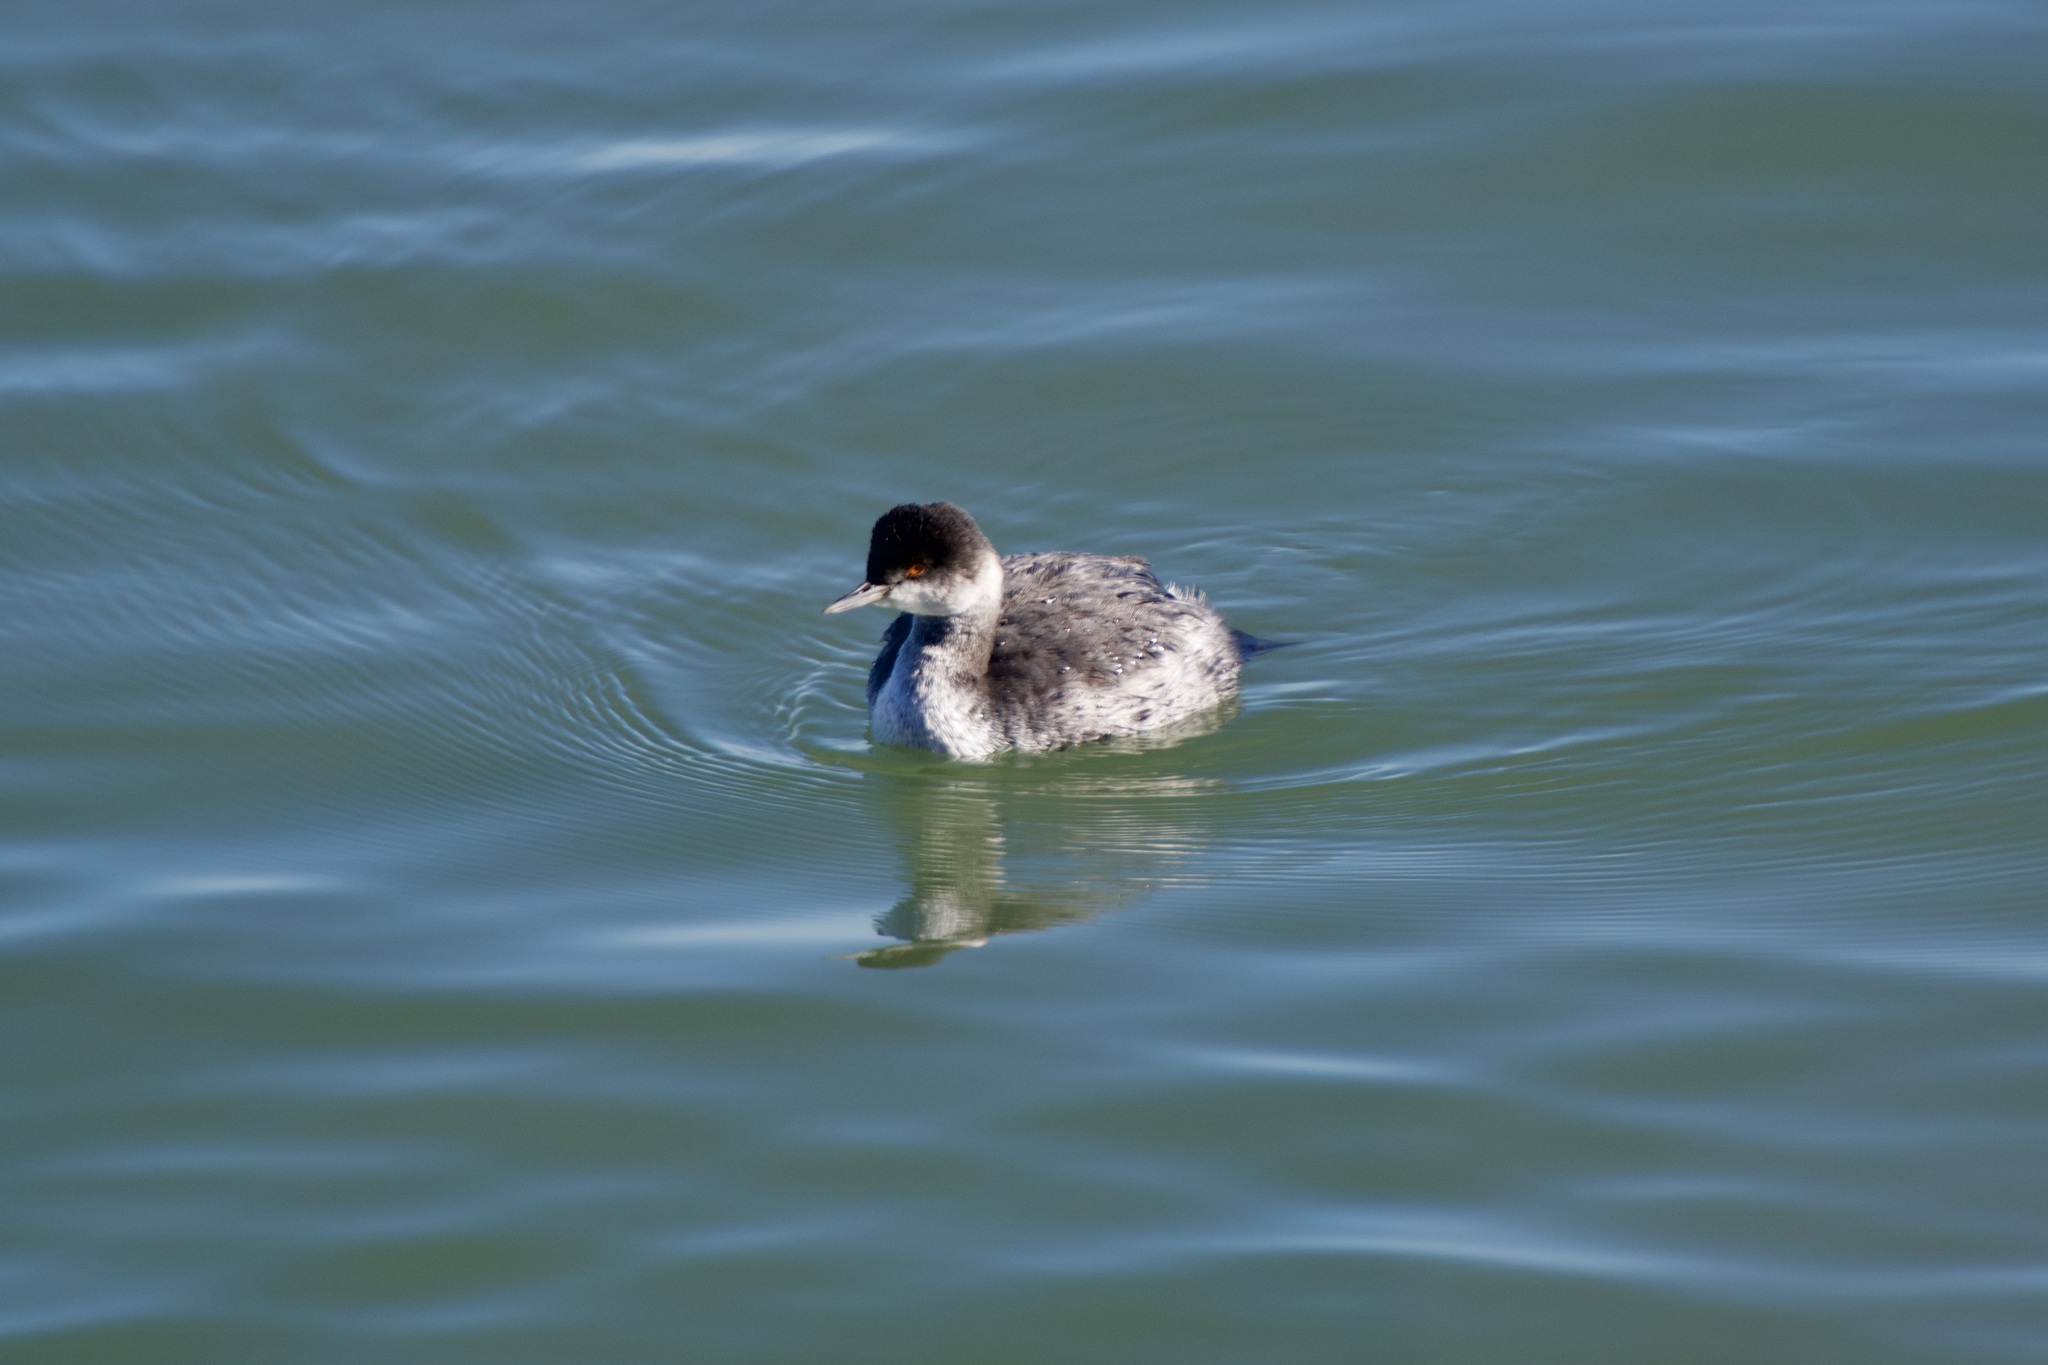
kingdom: Animalia
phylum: Chordata
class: Aves
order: Podicipediformes
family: Podicipedidae
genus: Podiceps
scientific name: Podiceps nigricollis
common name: Black-necked grebe
